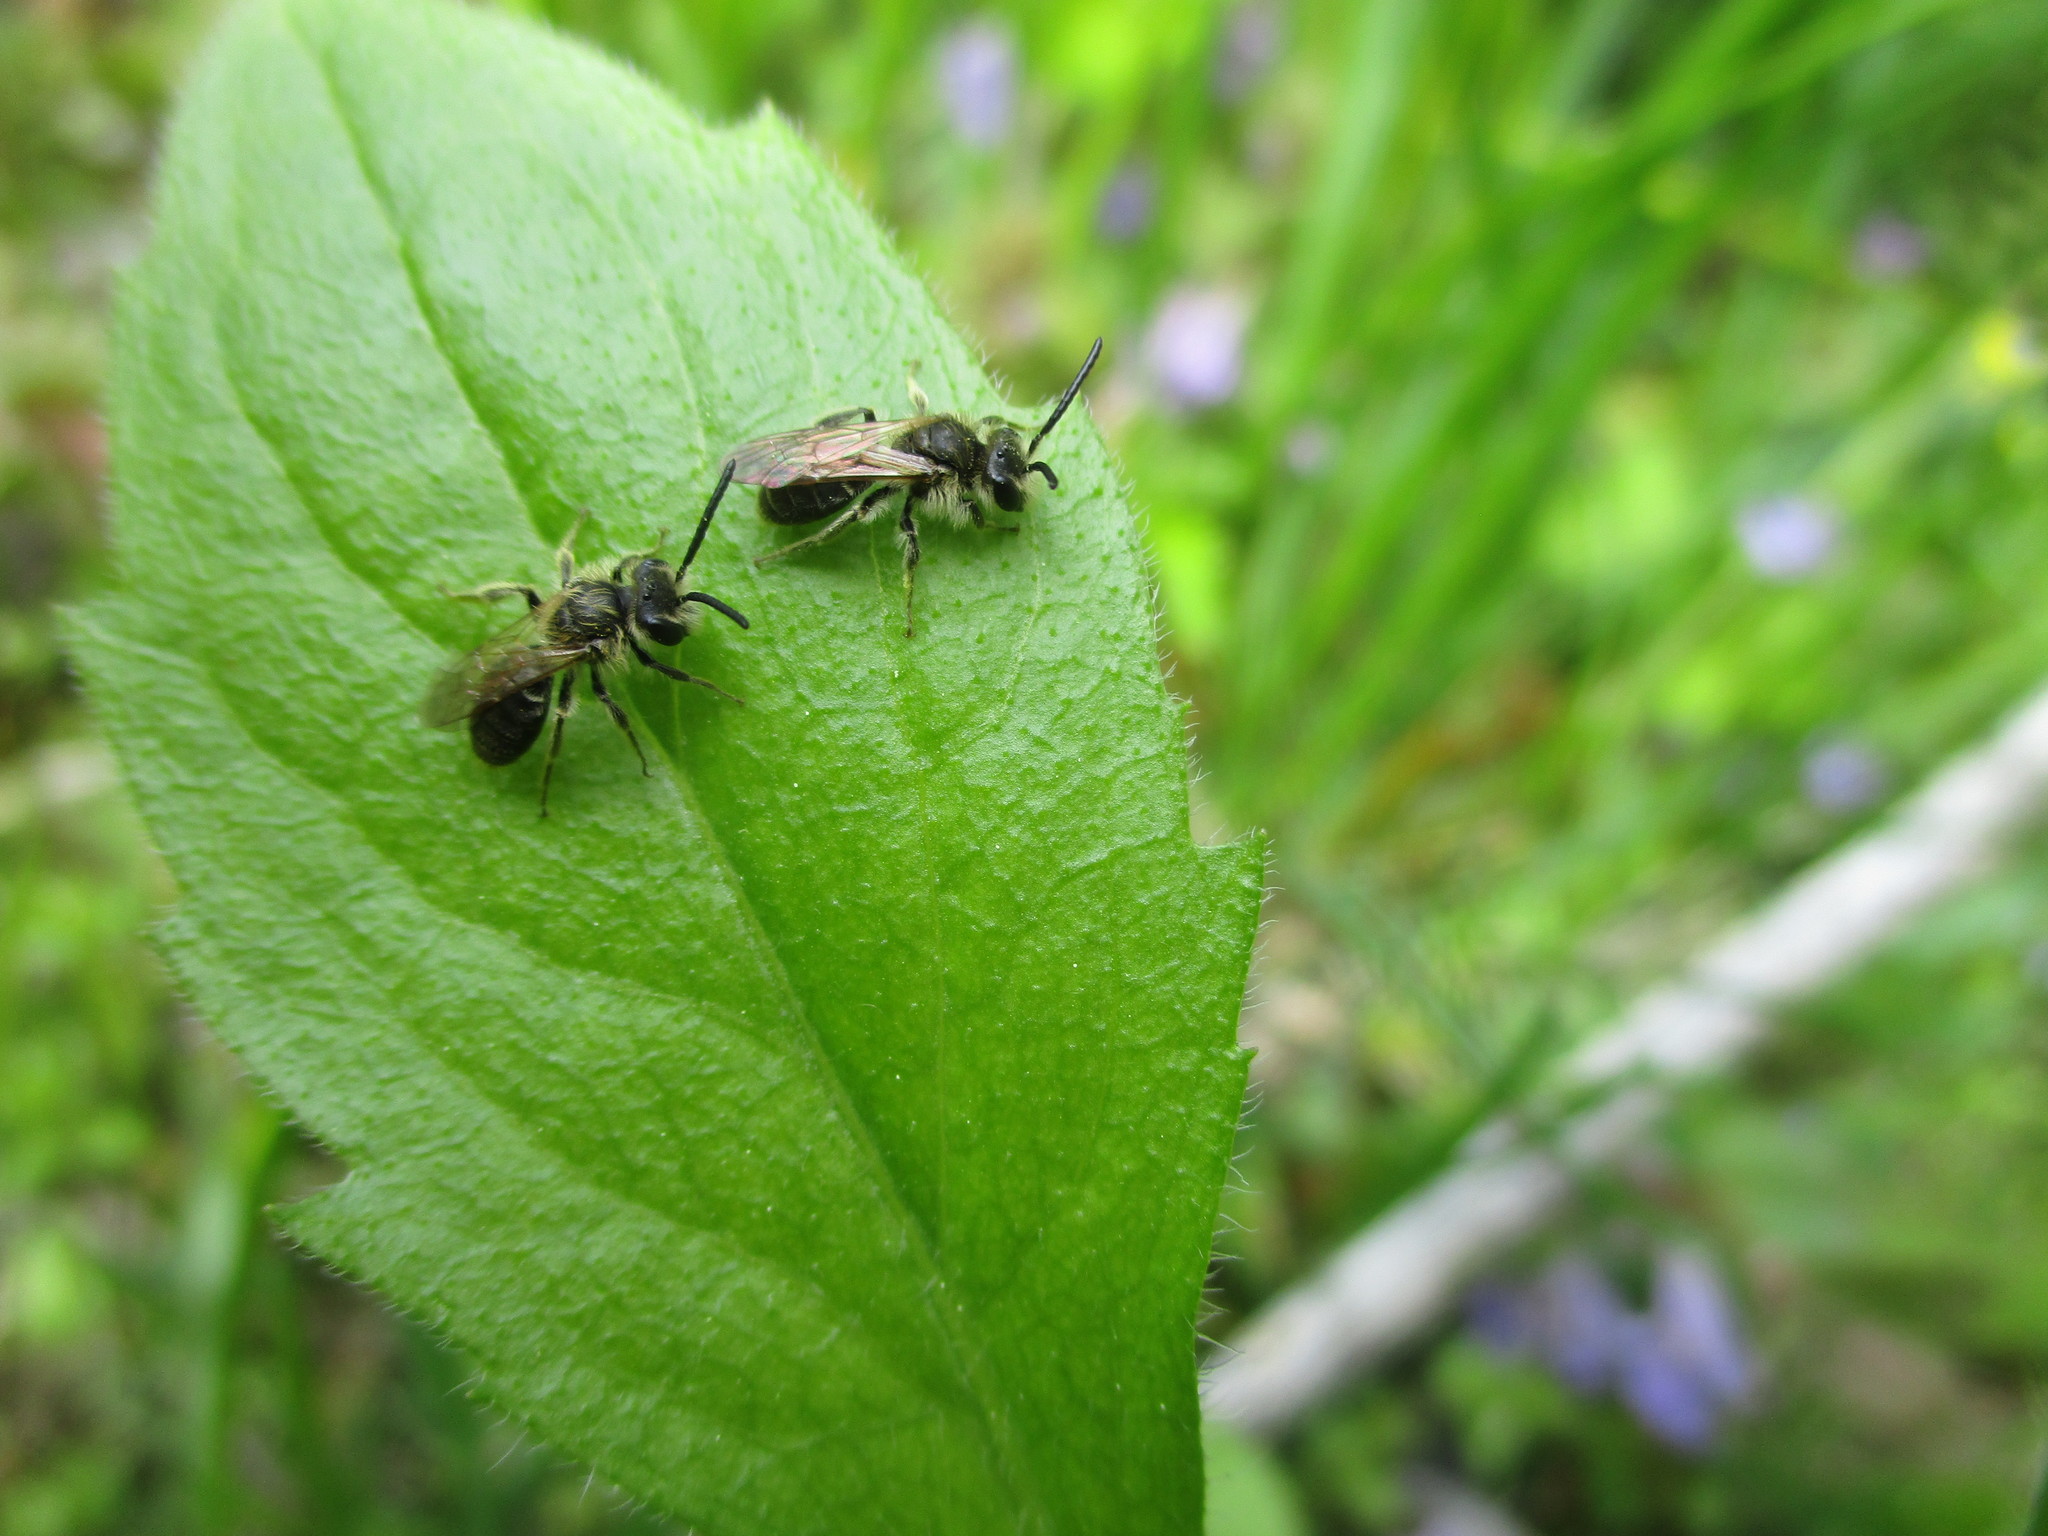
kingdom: Animalia
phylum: Arthropoda
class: Insecta
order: Hymenoptera
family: Andrenidae
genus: Andrena
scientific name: Andrena
